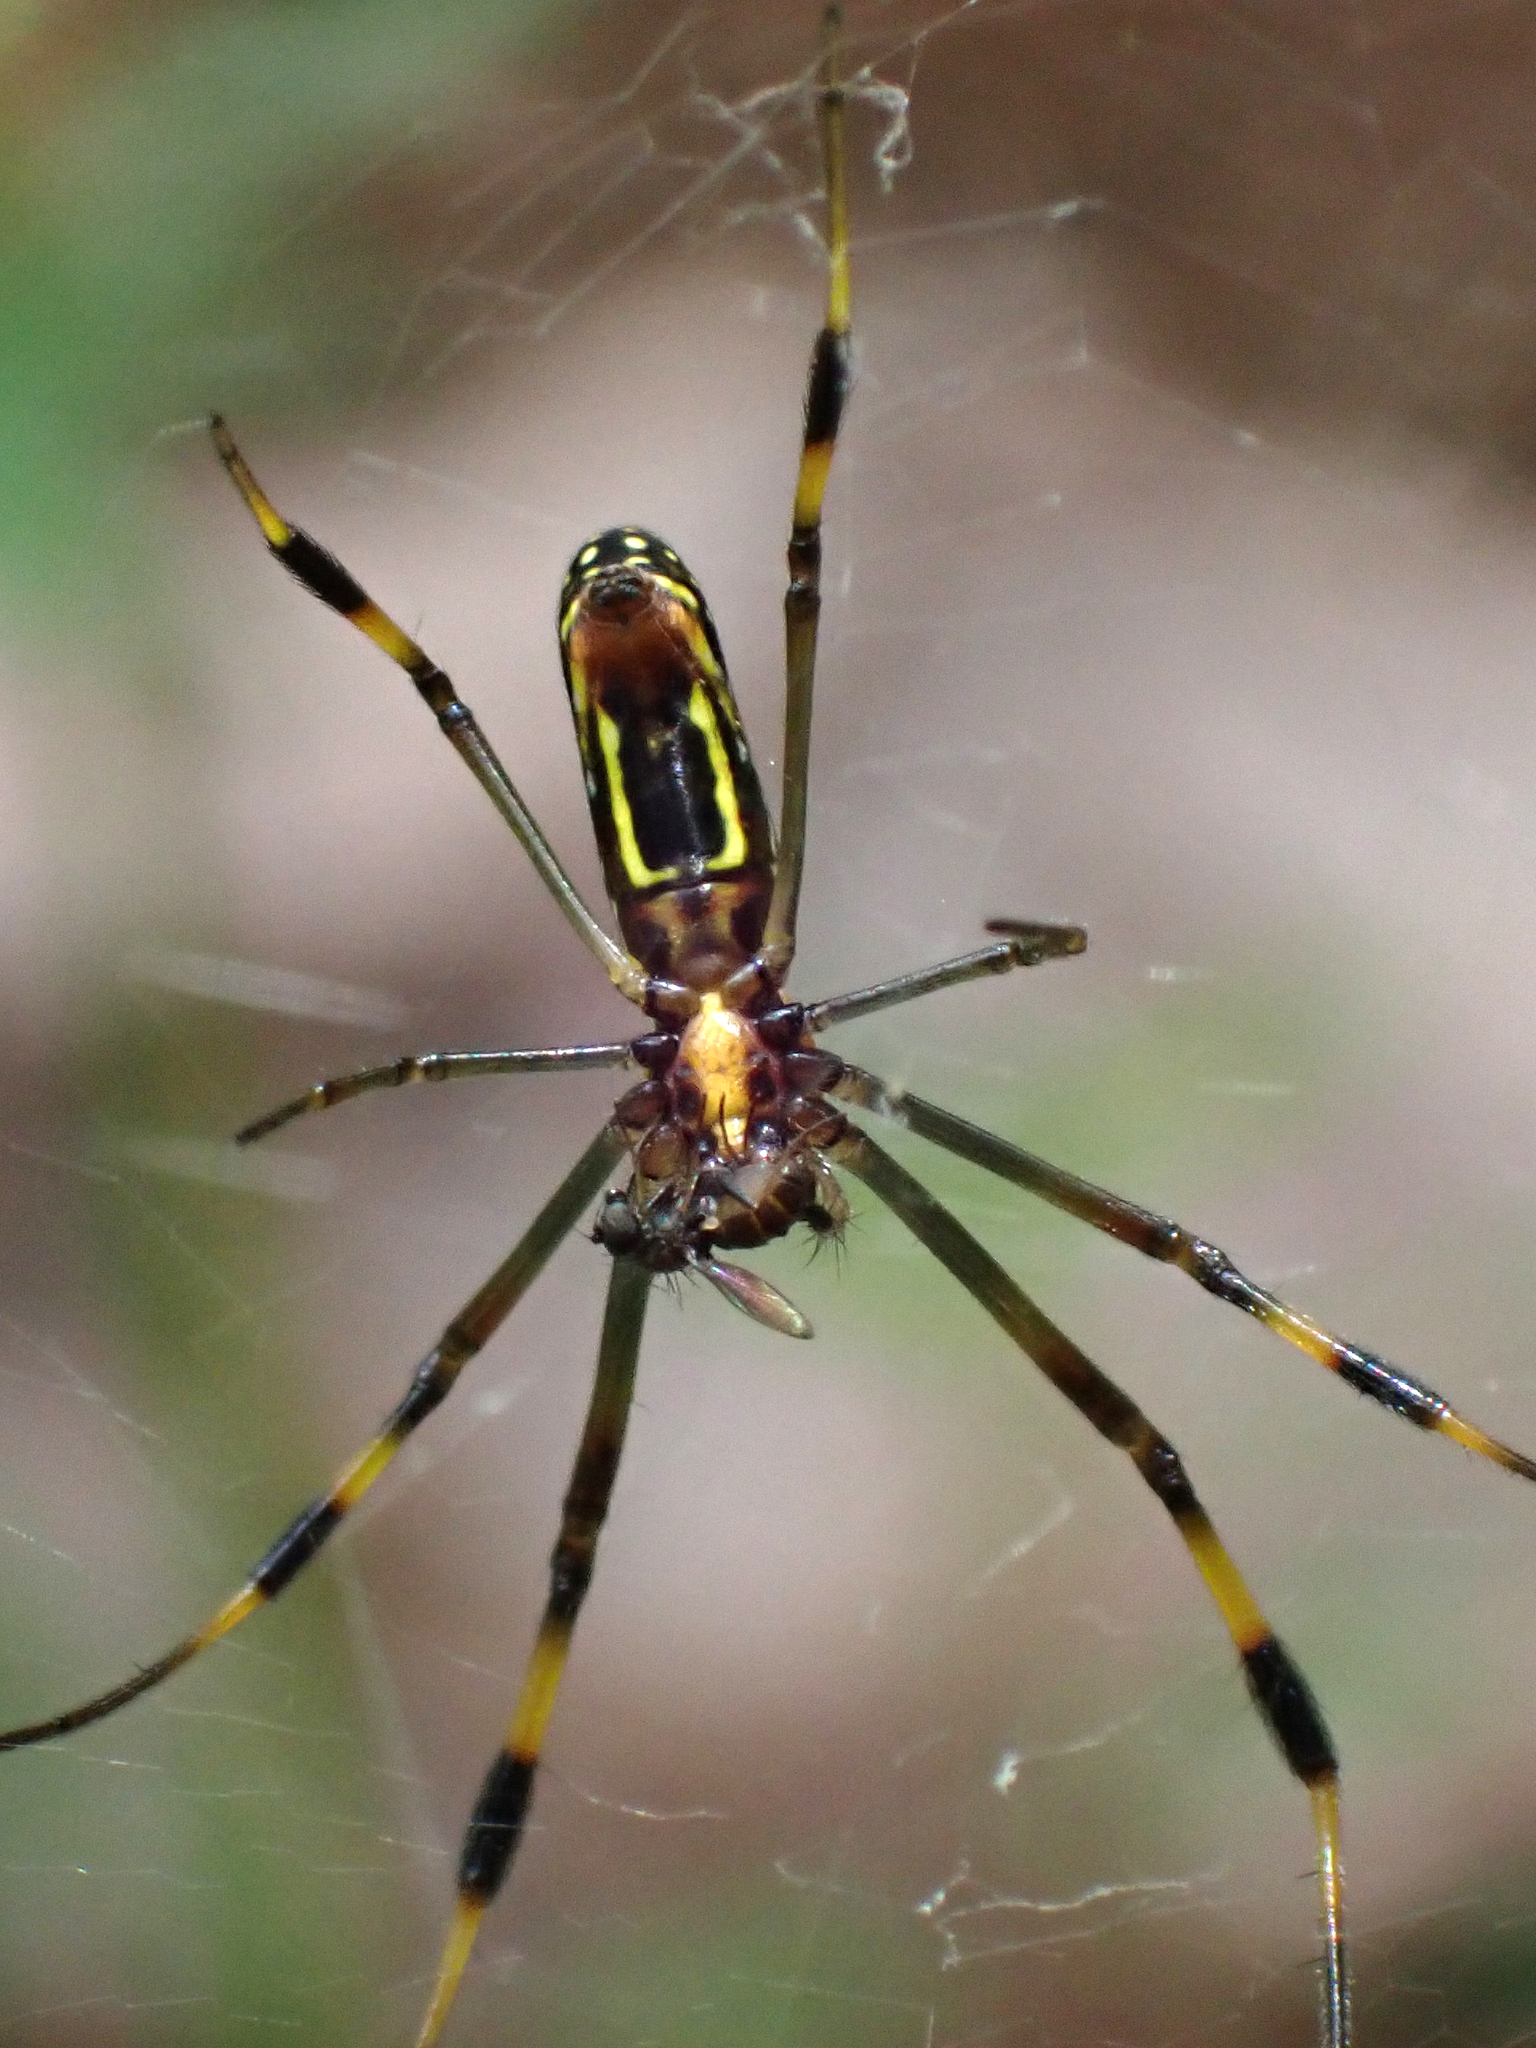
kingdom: Animalia
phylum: Arthropoda
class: Arachnida
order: Araneae
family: Araneidae
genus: Trichonephila
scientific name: Trichonephila clavipes
